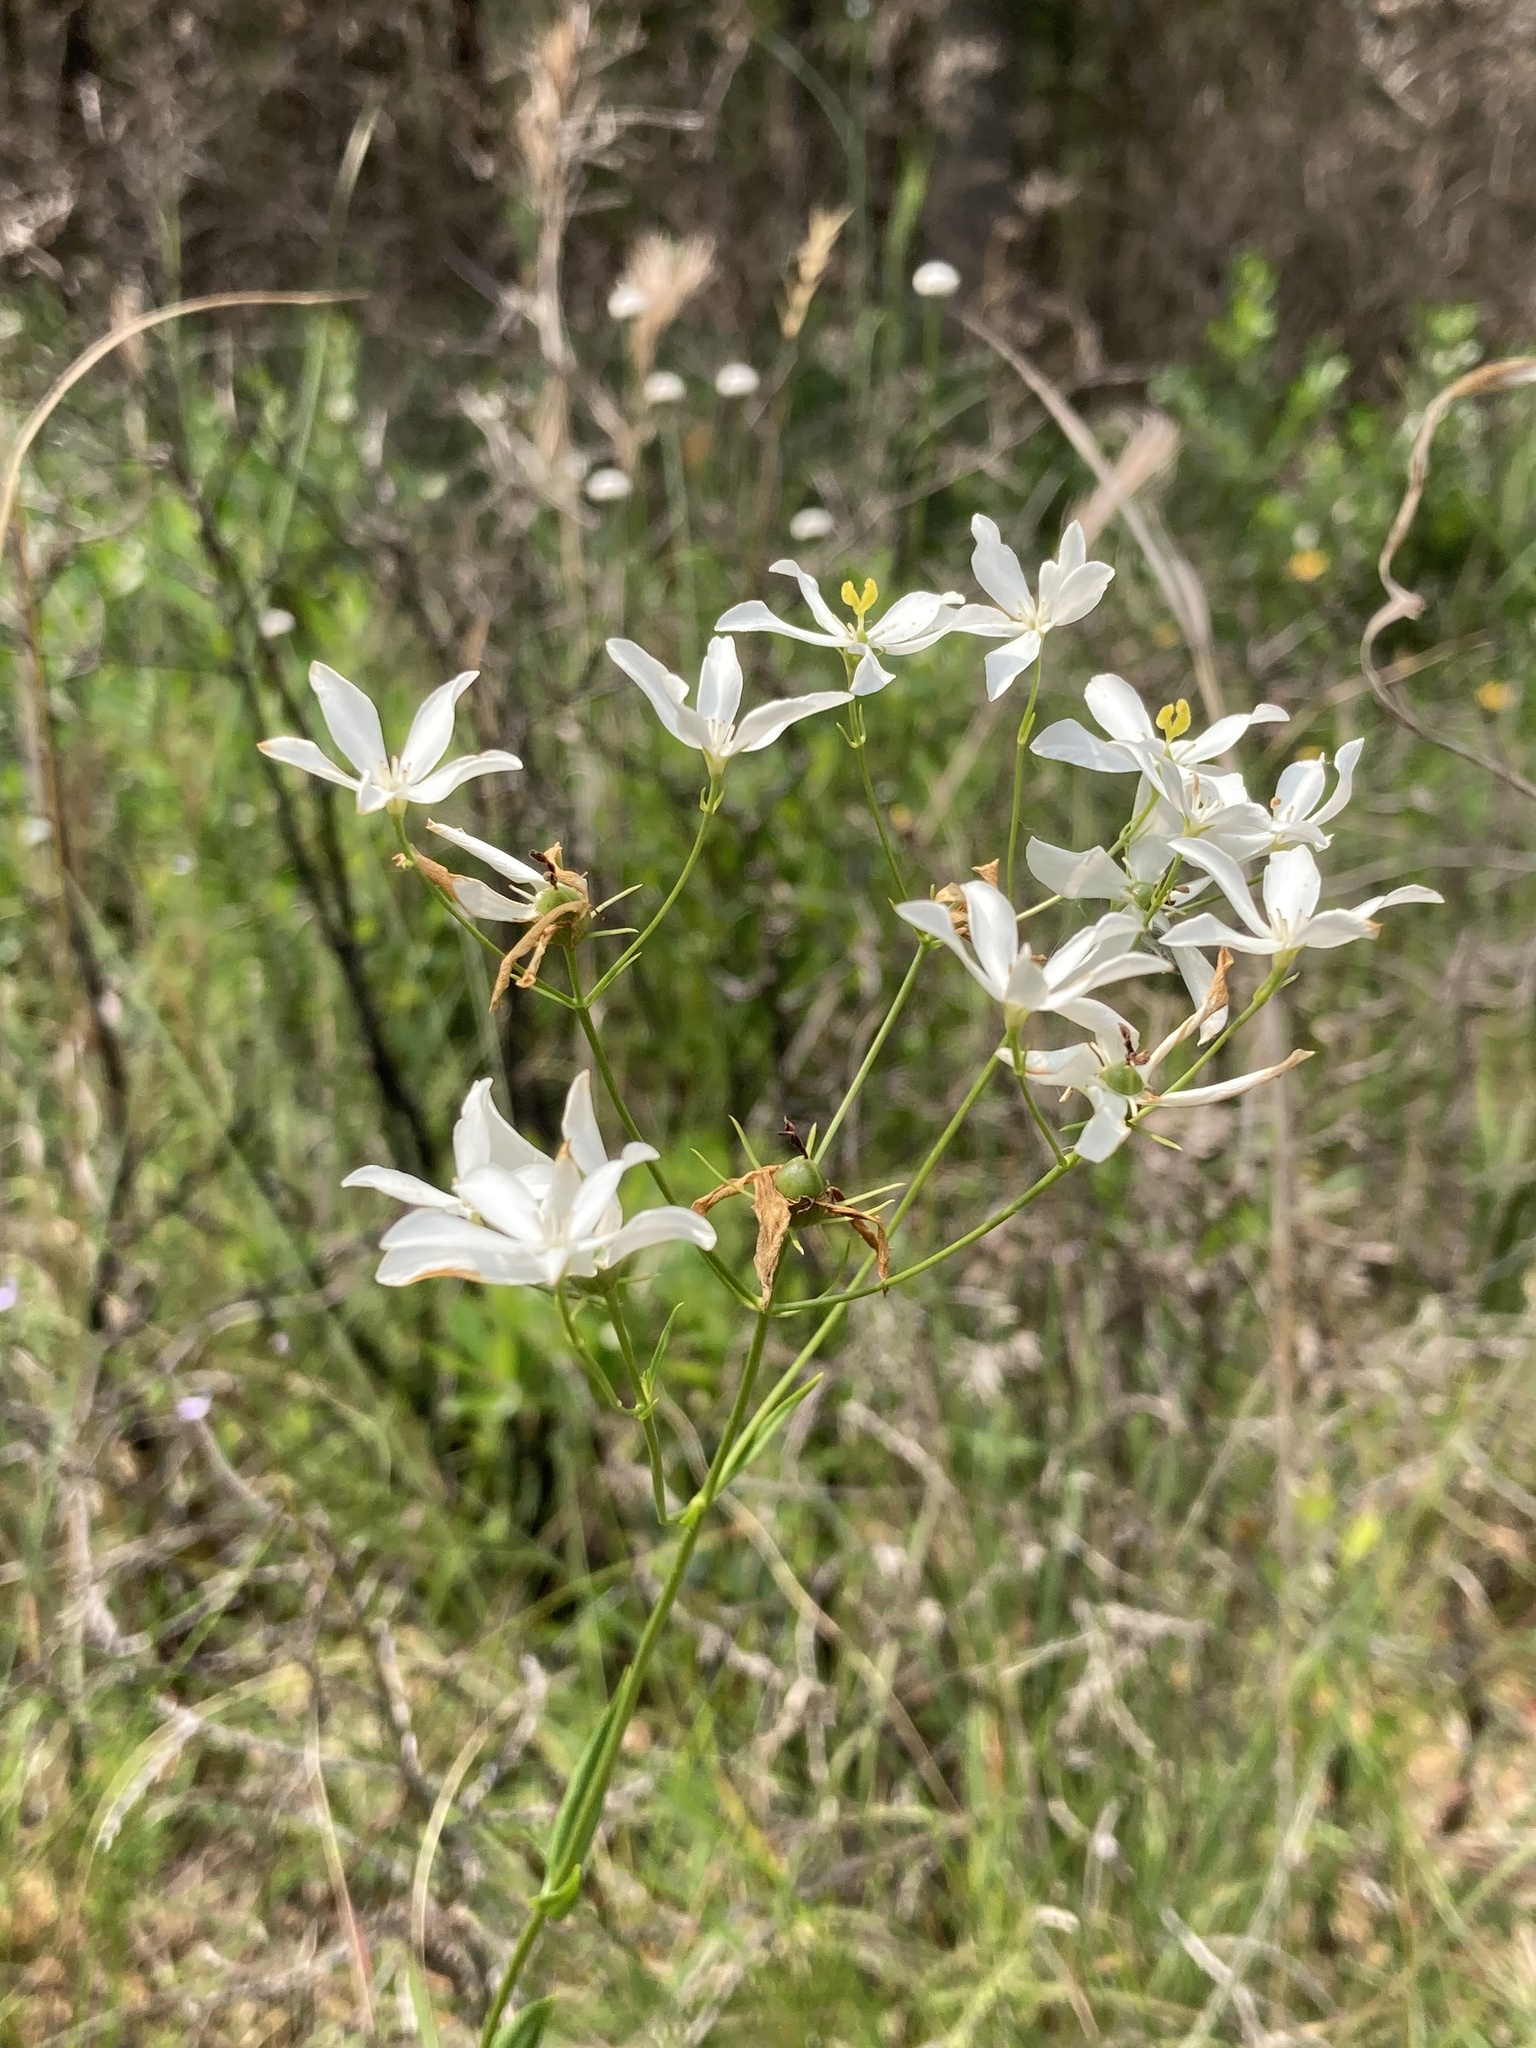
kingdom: Plantae
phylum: Tracheophyta
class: Magnoliopsida
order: Gentianales
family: Gentianaceae
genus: Sabatia
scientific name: Sabatia difformis
